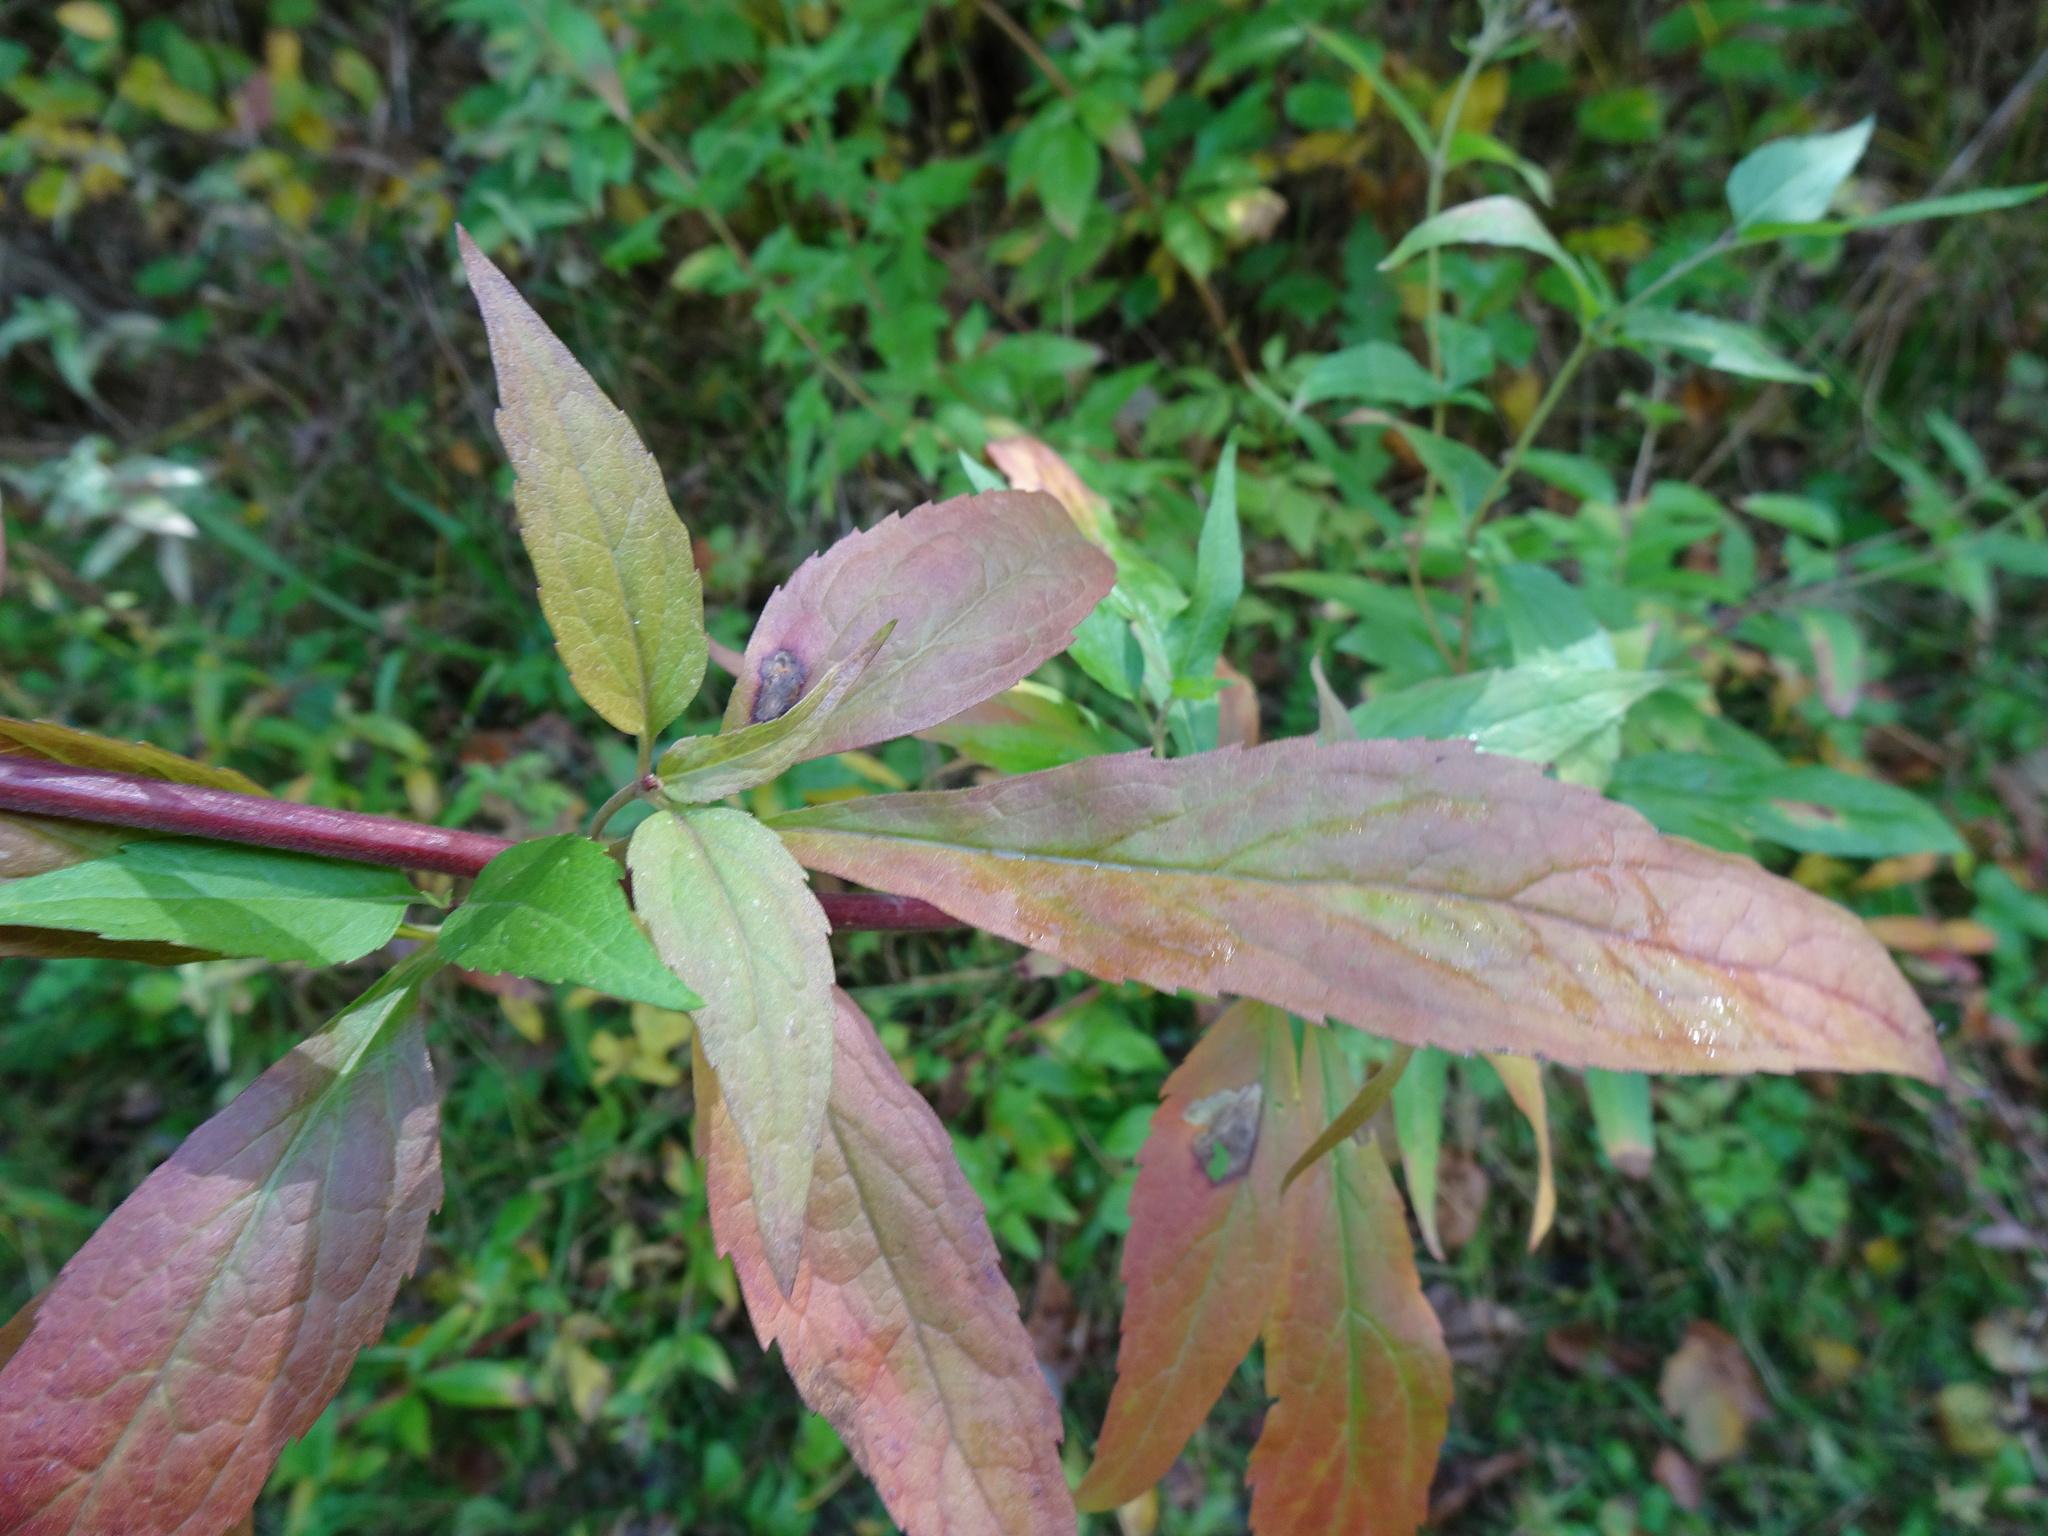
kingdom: Plantae
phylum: Tracheophyta
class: Magnoliopsida
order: Asterales
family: Asteraceae
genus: Eupatorium
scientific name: Eupatorium cannabinum
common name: Hemp-agrimony
